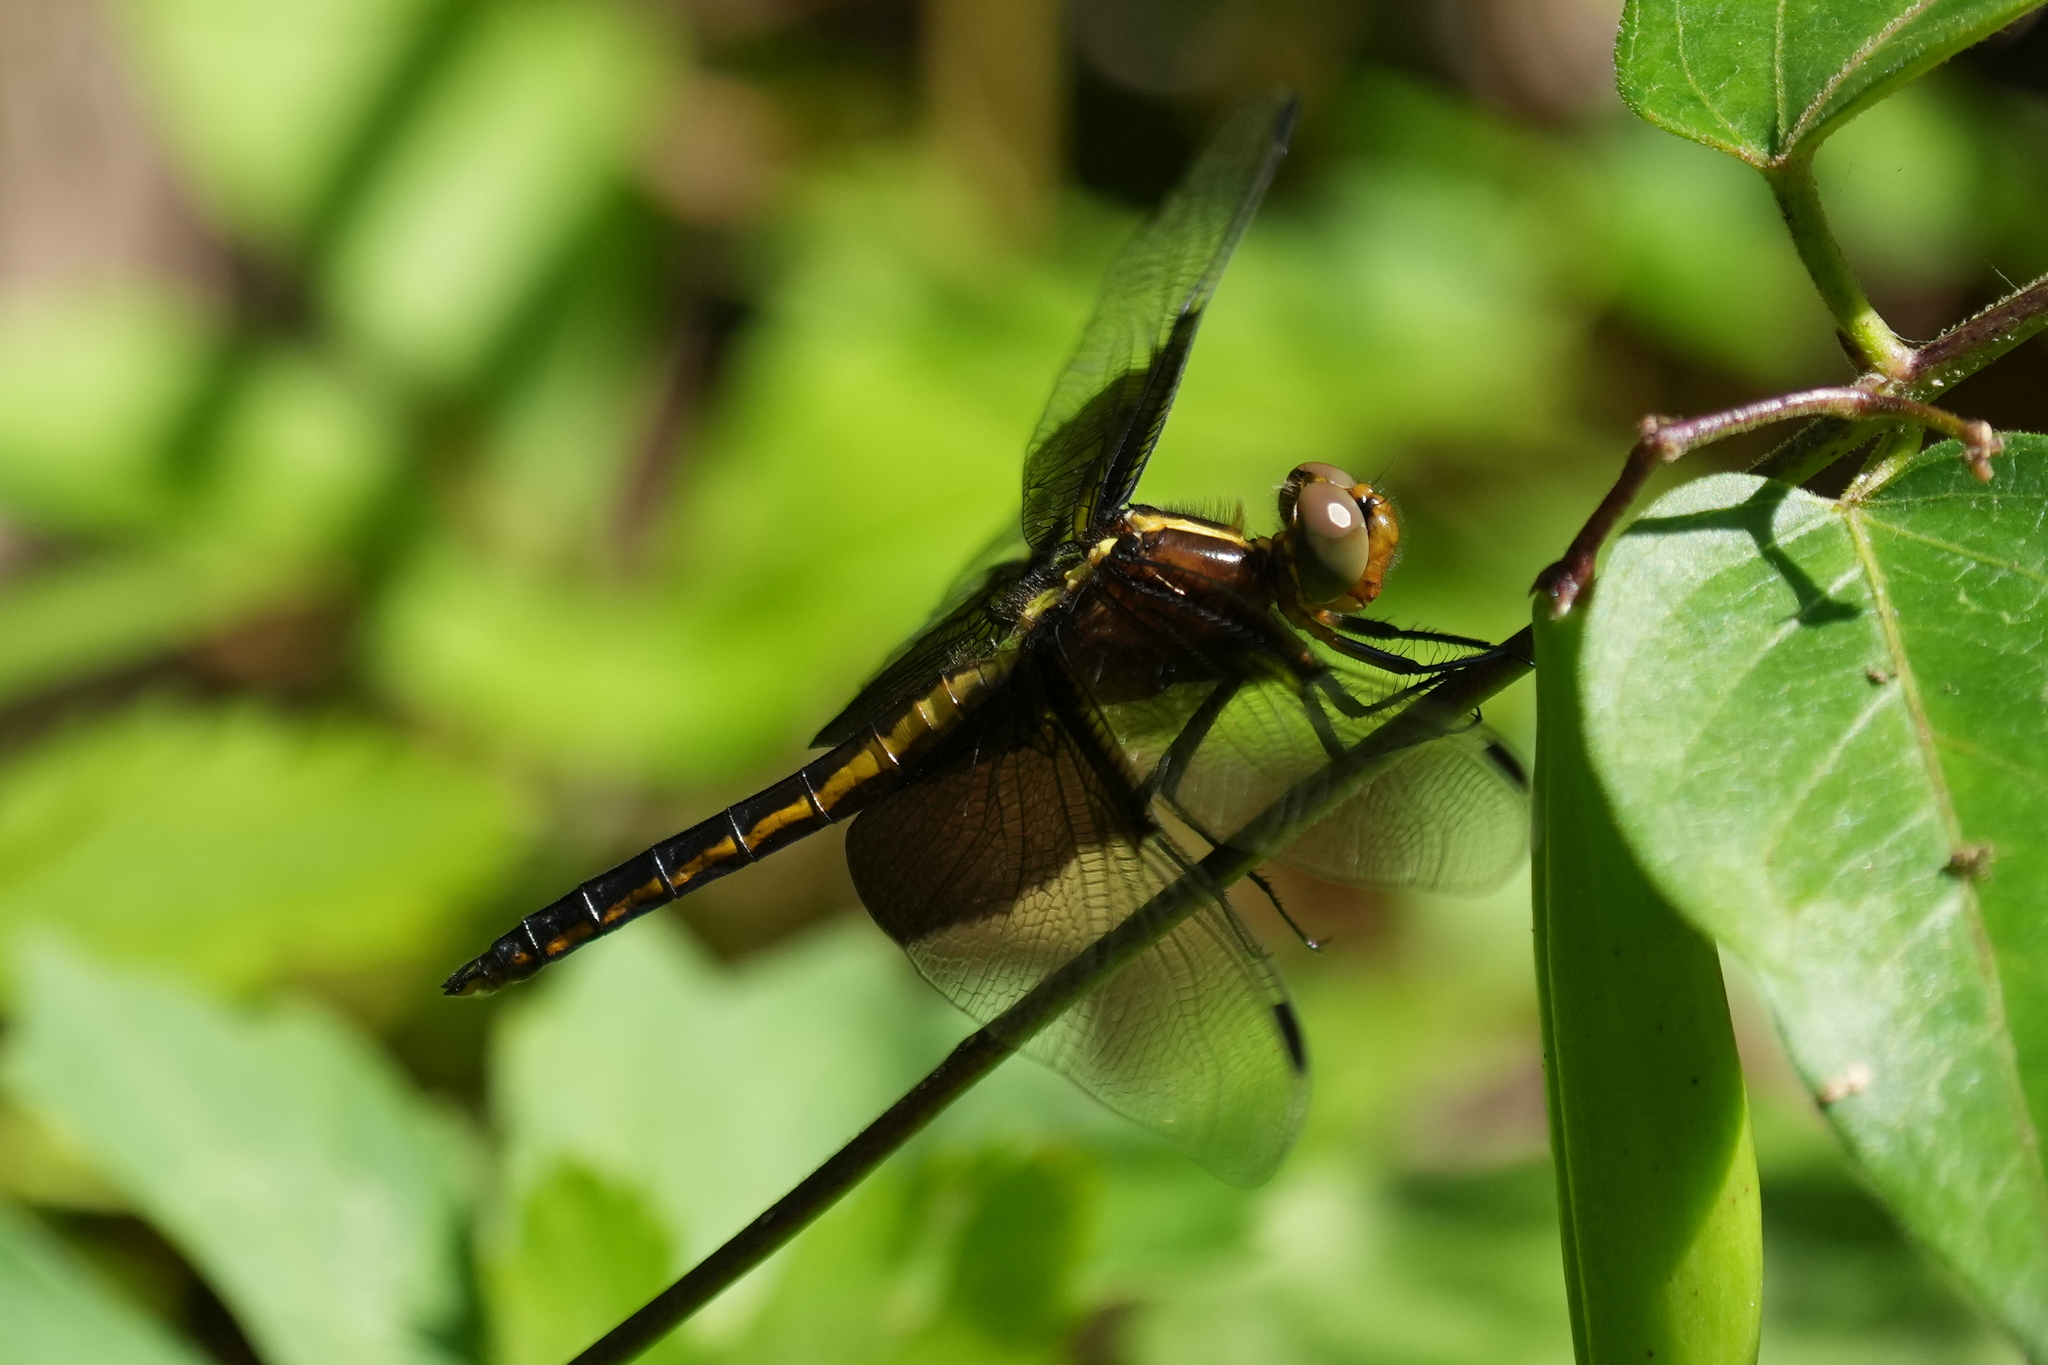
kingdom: Animalia
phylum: Arthropoda
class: Insecta
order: Odonata
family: Libellulidae
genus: Libellula
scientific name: Libellula luctuosa
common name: Widow skimmer
